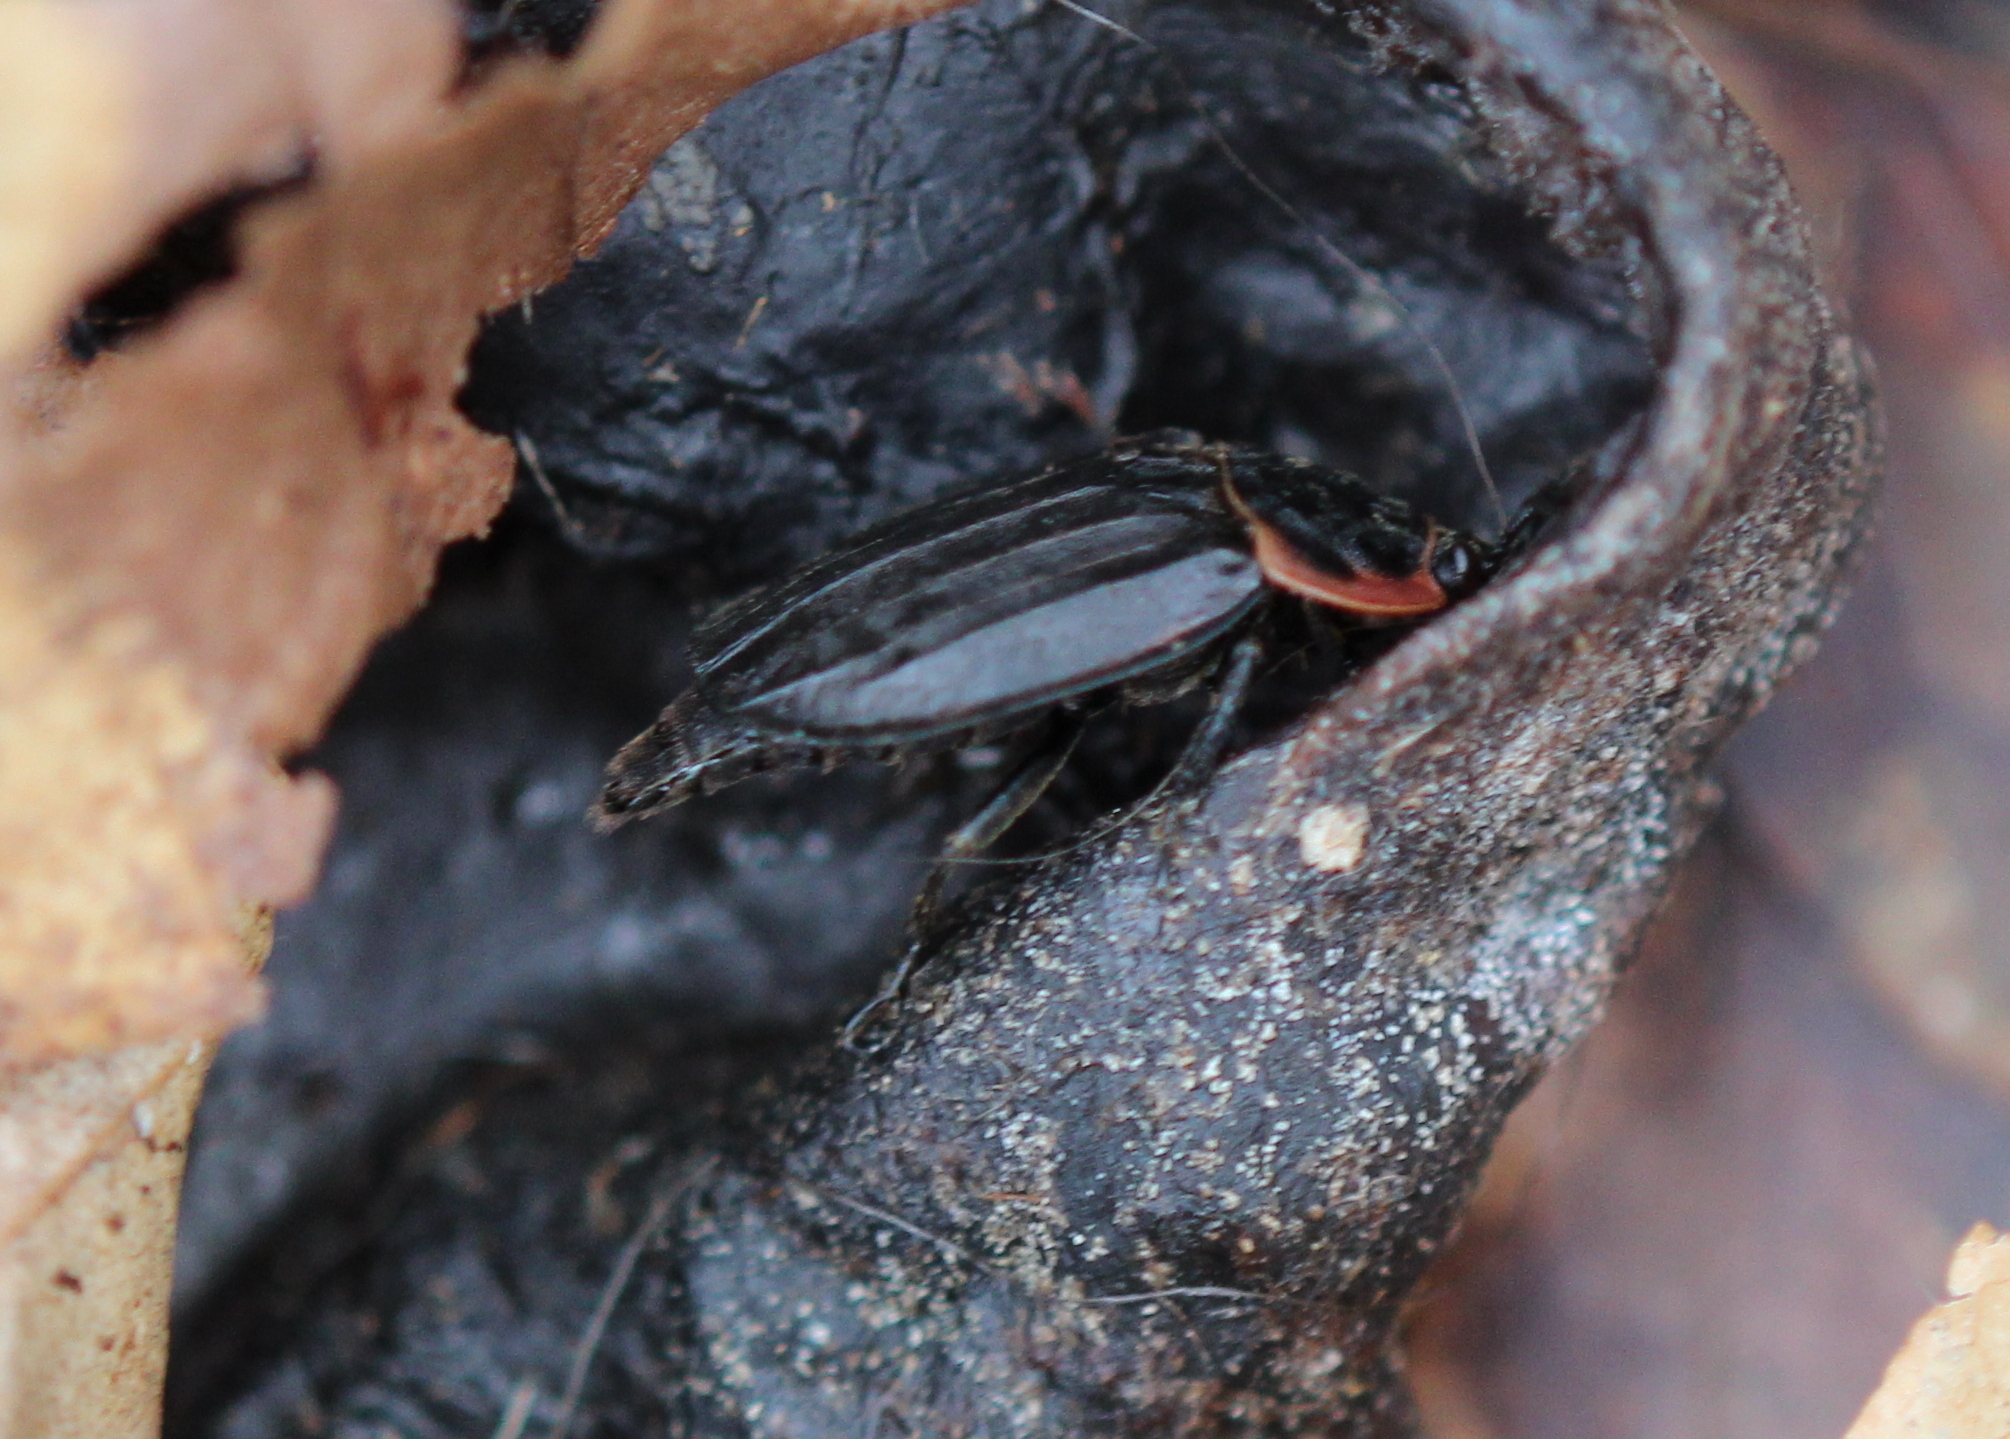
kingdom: Animalia
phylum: Arthropoda
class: Insecta
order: Coleoptera
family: Staphylinidae
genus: Oiceoptoma
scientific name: Oiceoptoma noveboracense
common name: Margined carrion beetle
